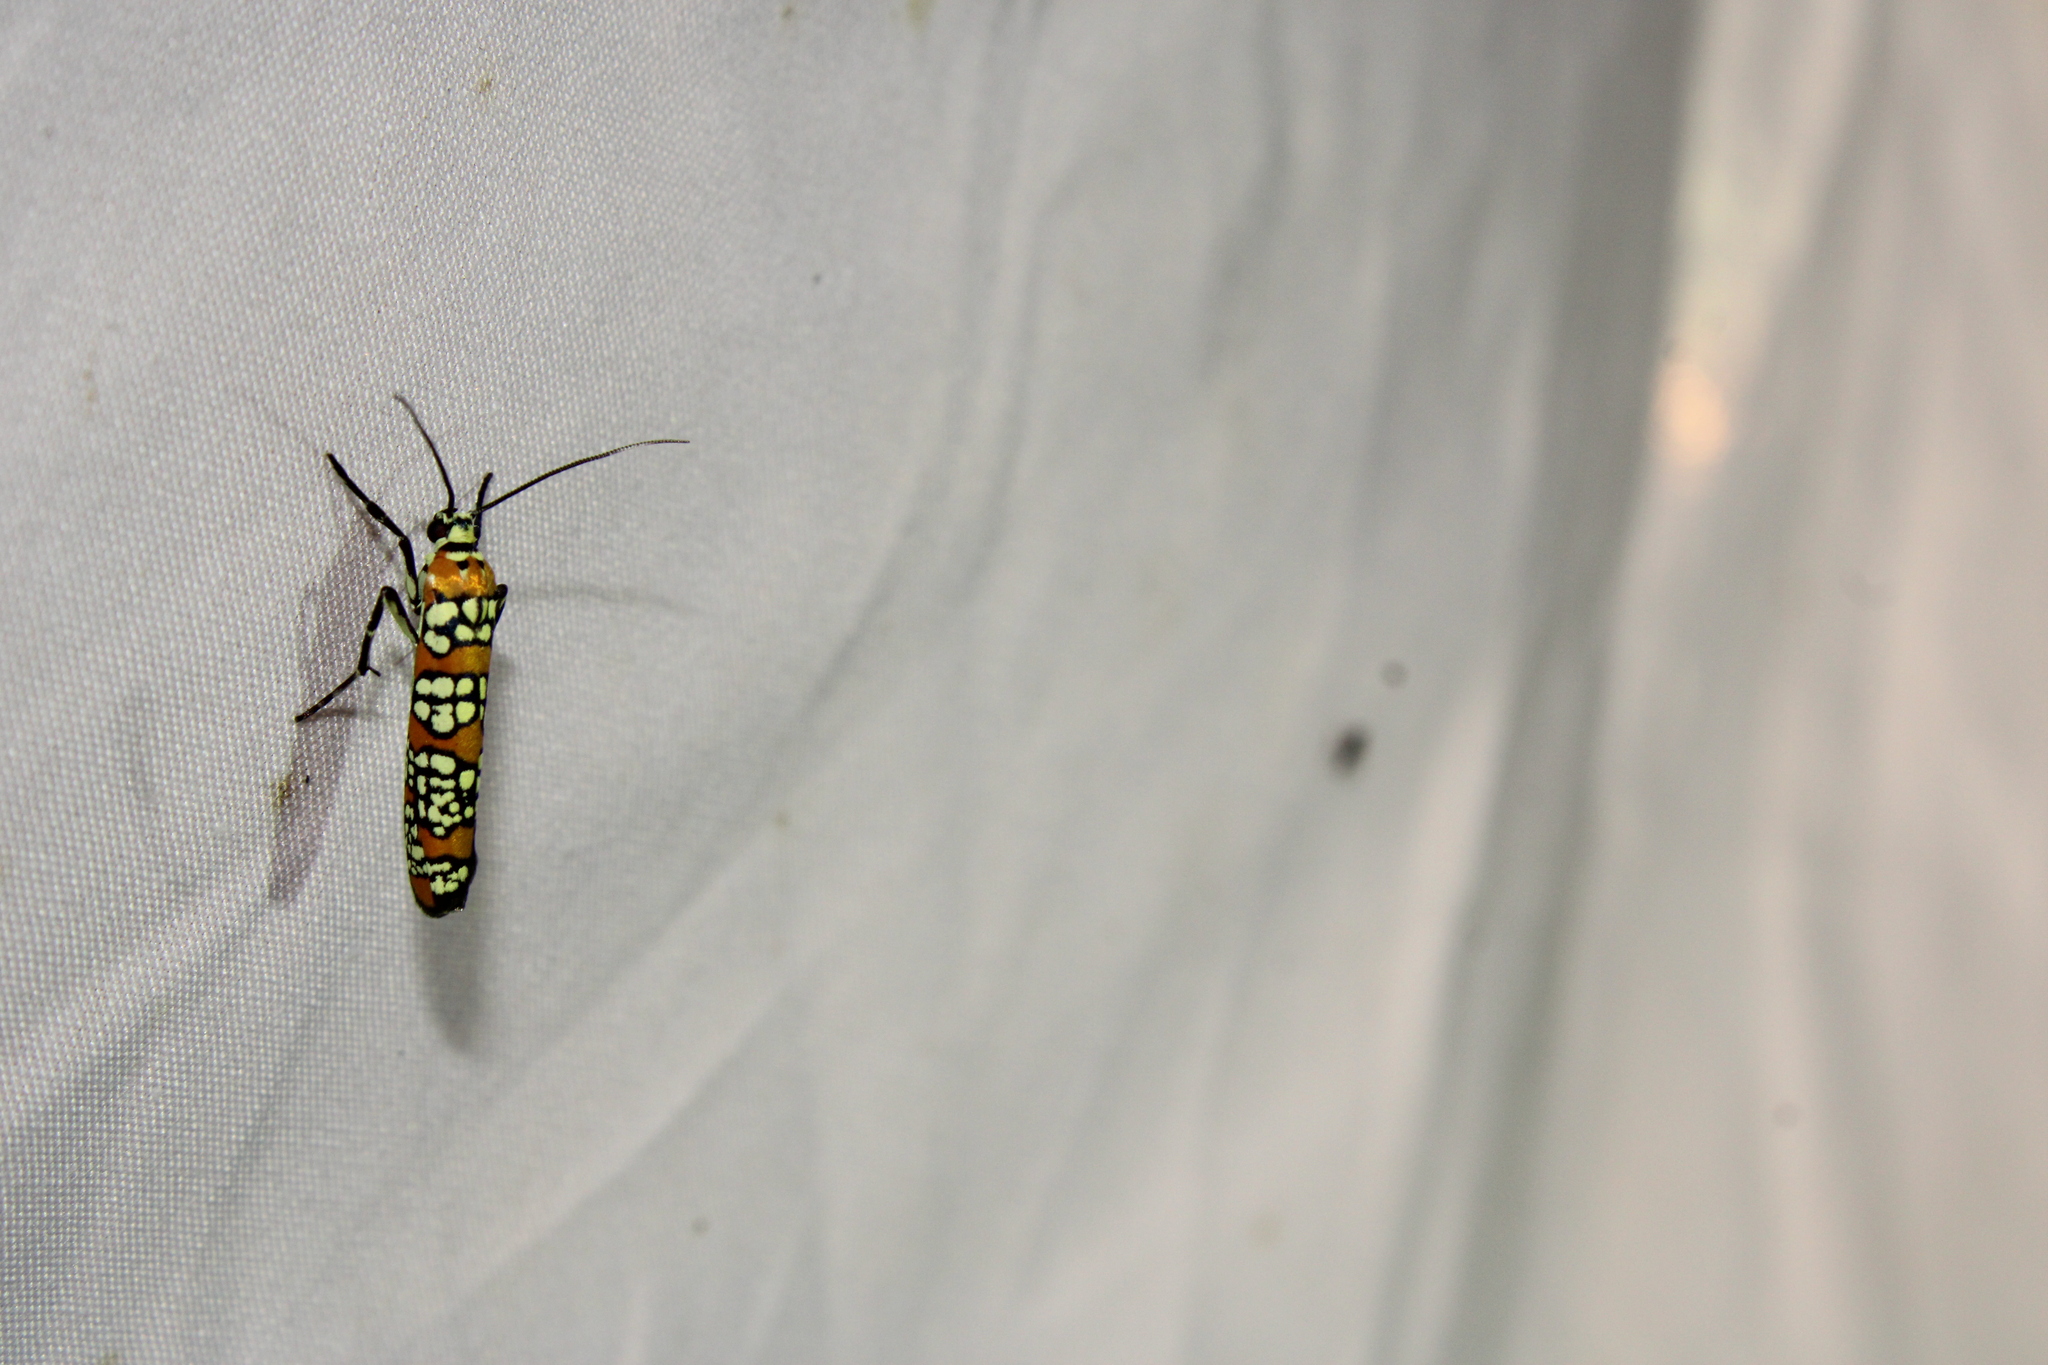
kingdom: Animalia
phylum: Arthropoda
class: Insecta
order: Lepidoptera
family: Attevidae
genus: Atteva
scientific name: Atteva punctella
